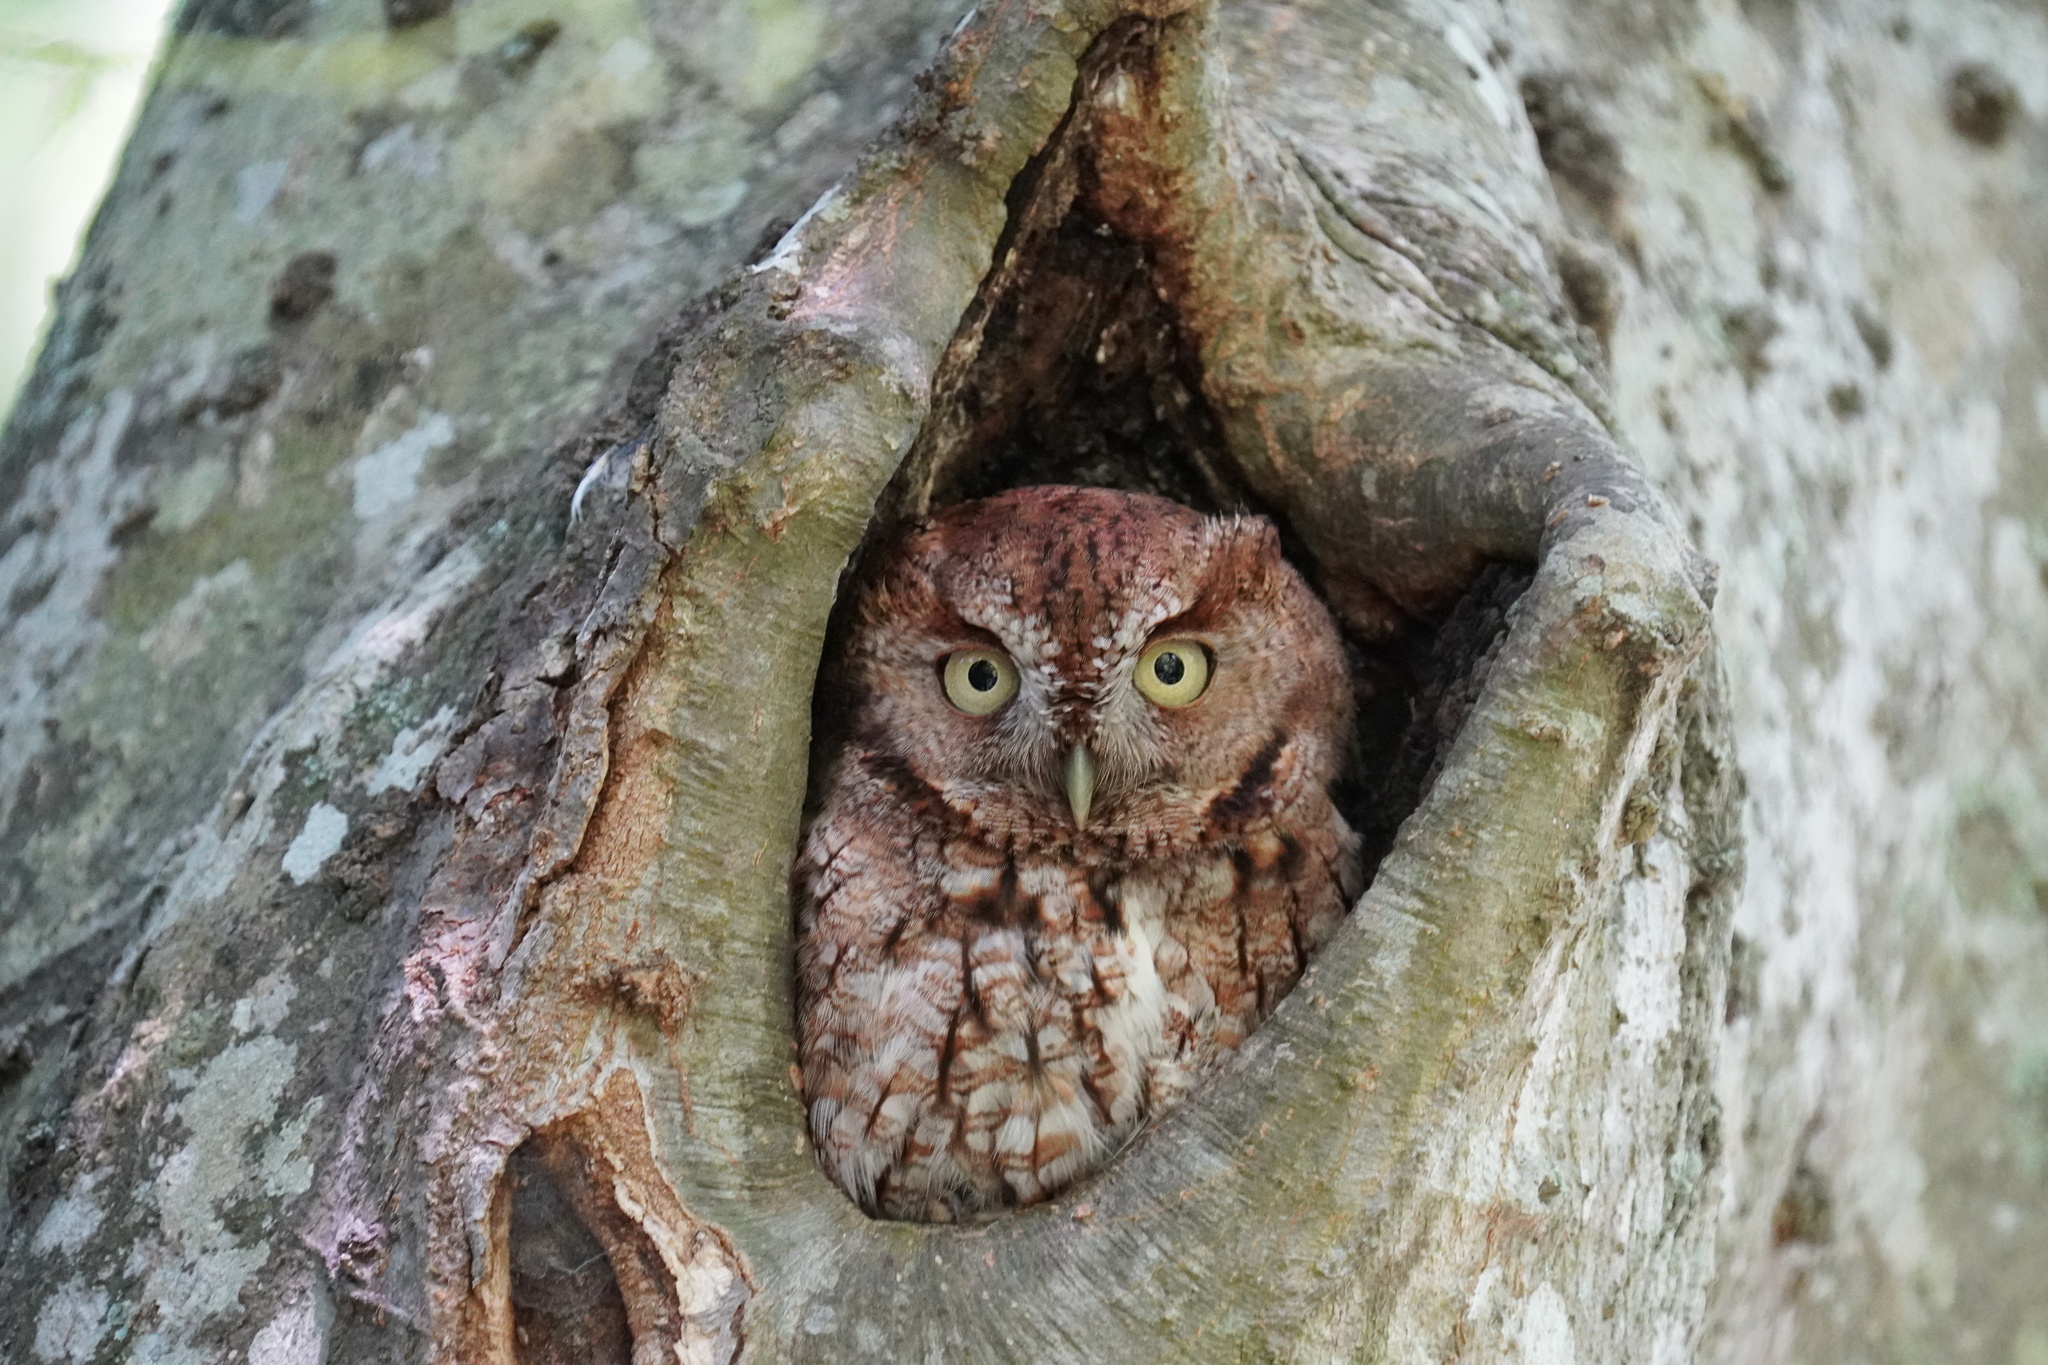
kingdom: Animalia
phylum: Chordata
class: Aves
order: Strigiformes
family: Strigidae
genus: Megascops
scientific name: Megascops asio
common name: Eastern screech-owl
